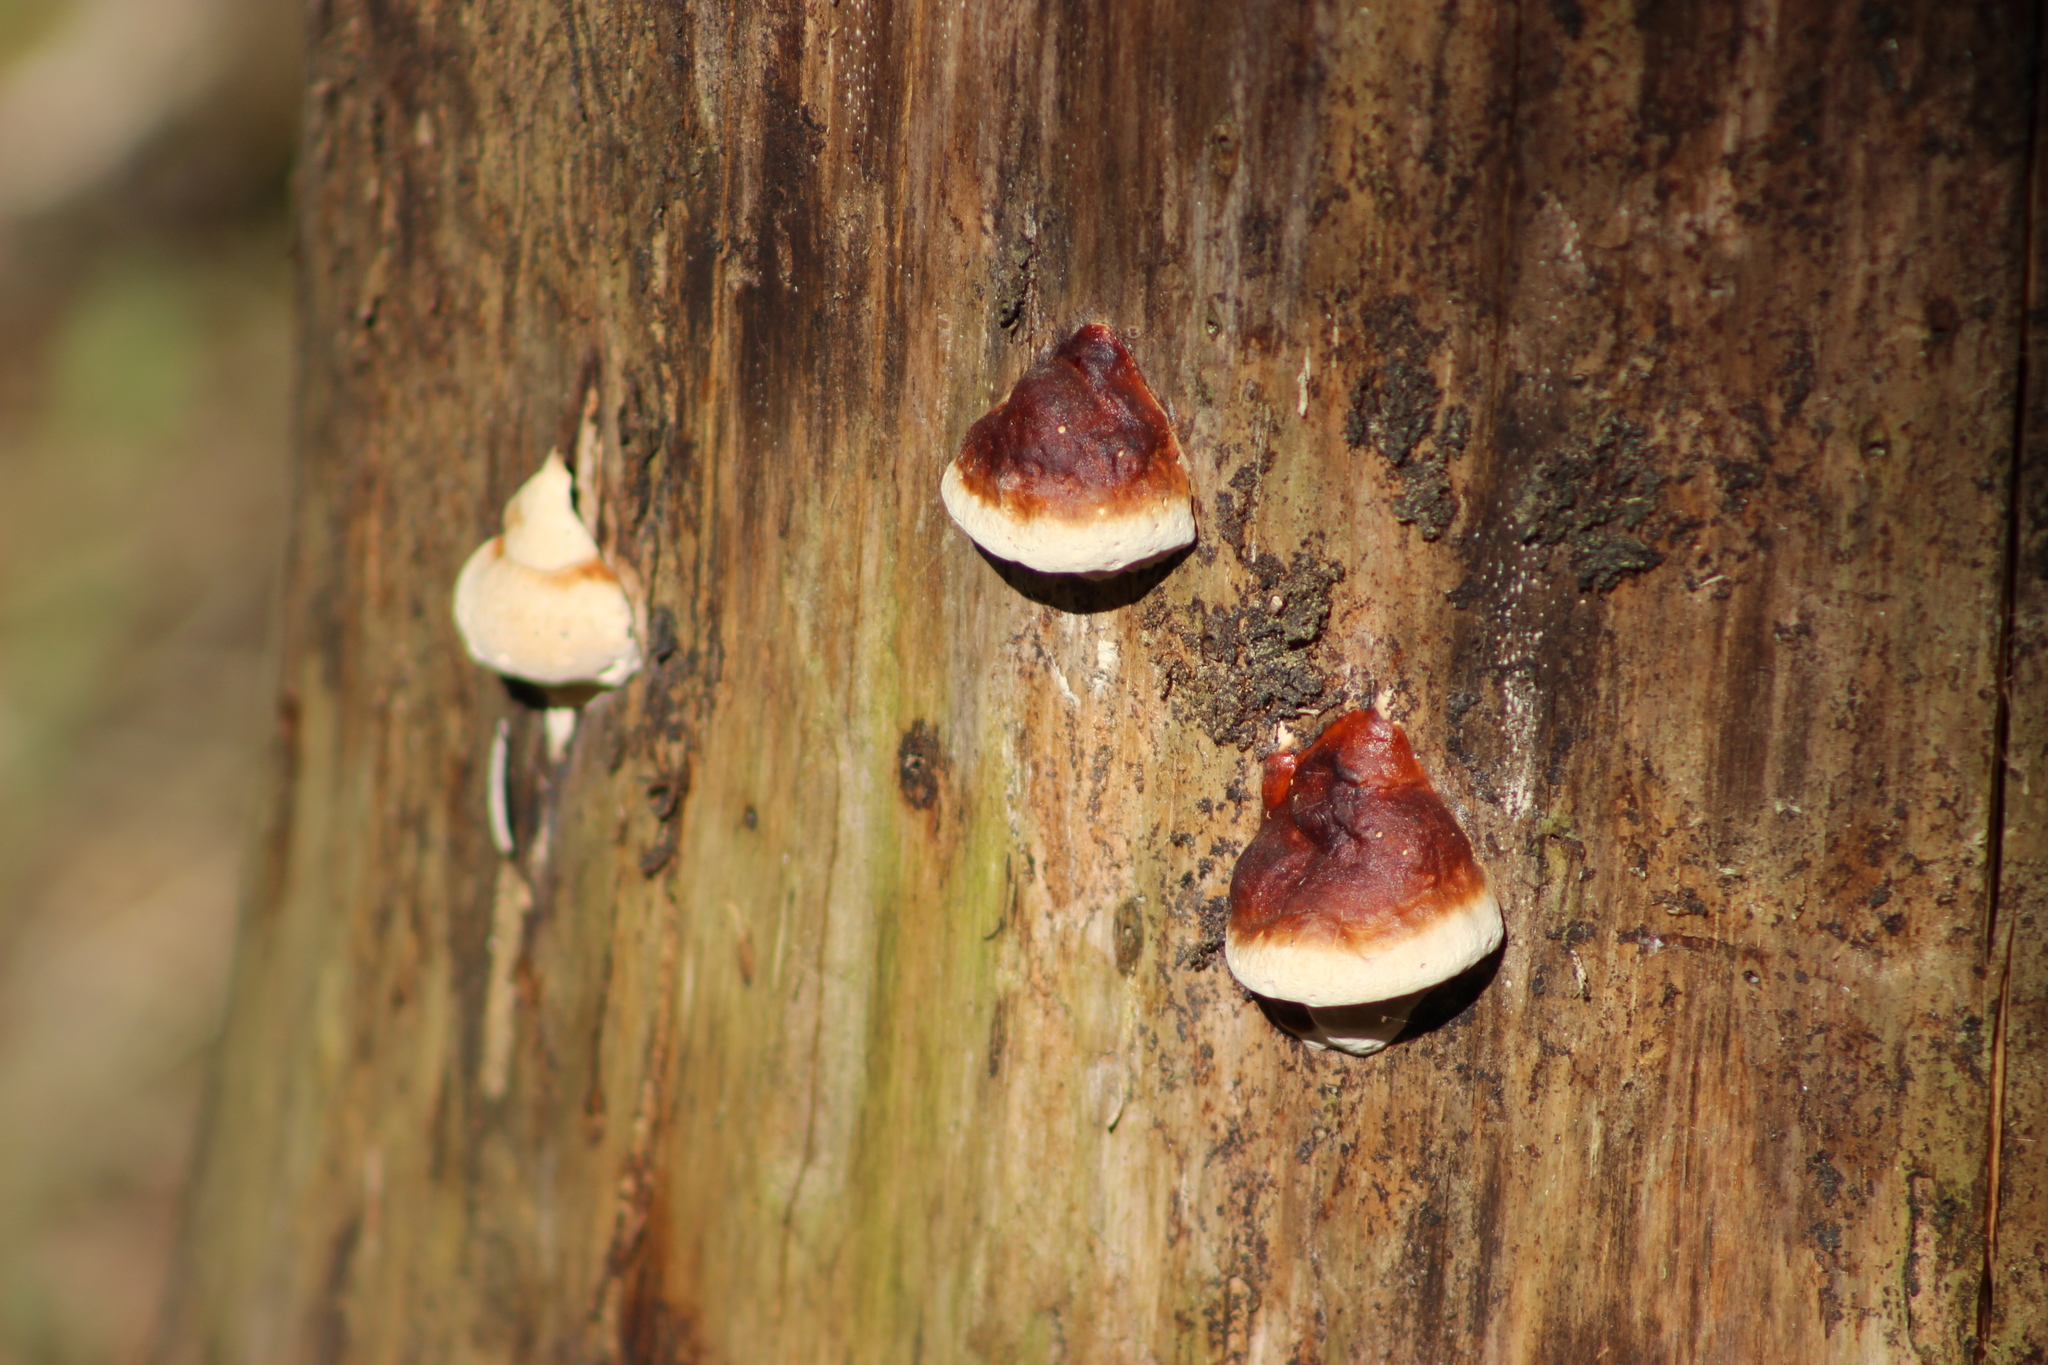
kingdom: Fungi
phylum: Basidiomycota
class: Agaricomycetes
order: Polyporales
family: Fomitopsidaceae
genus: Fomitopsis
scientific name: Fomitopsis pinicola
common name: Red-belted bracket
